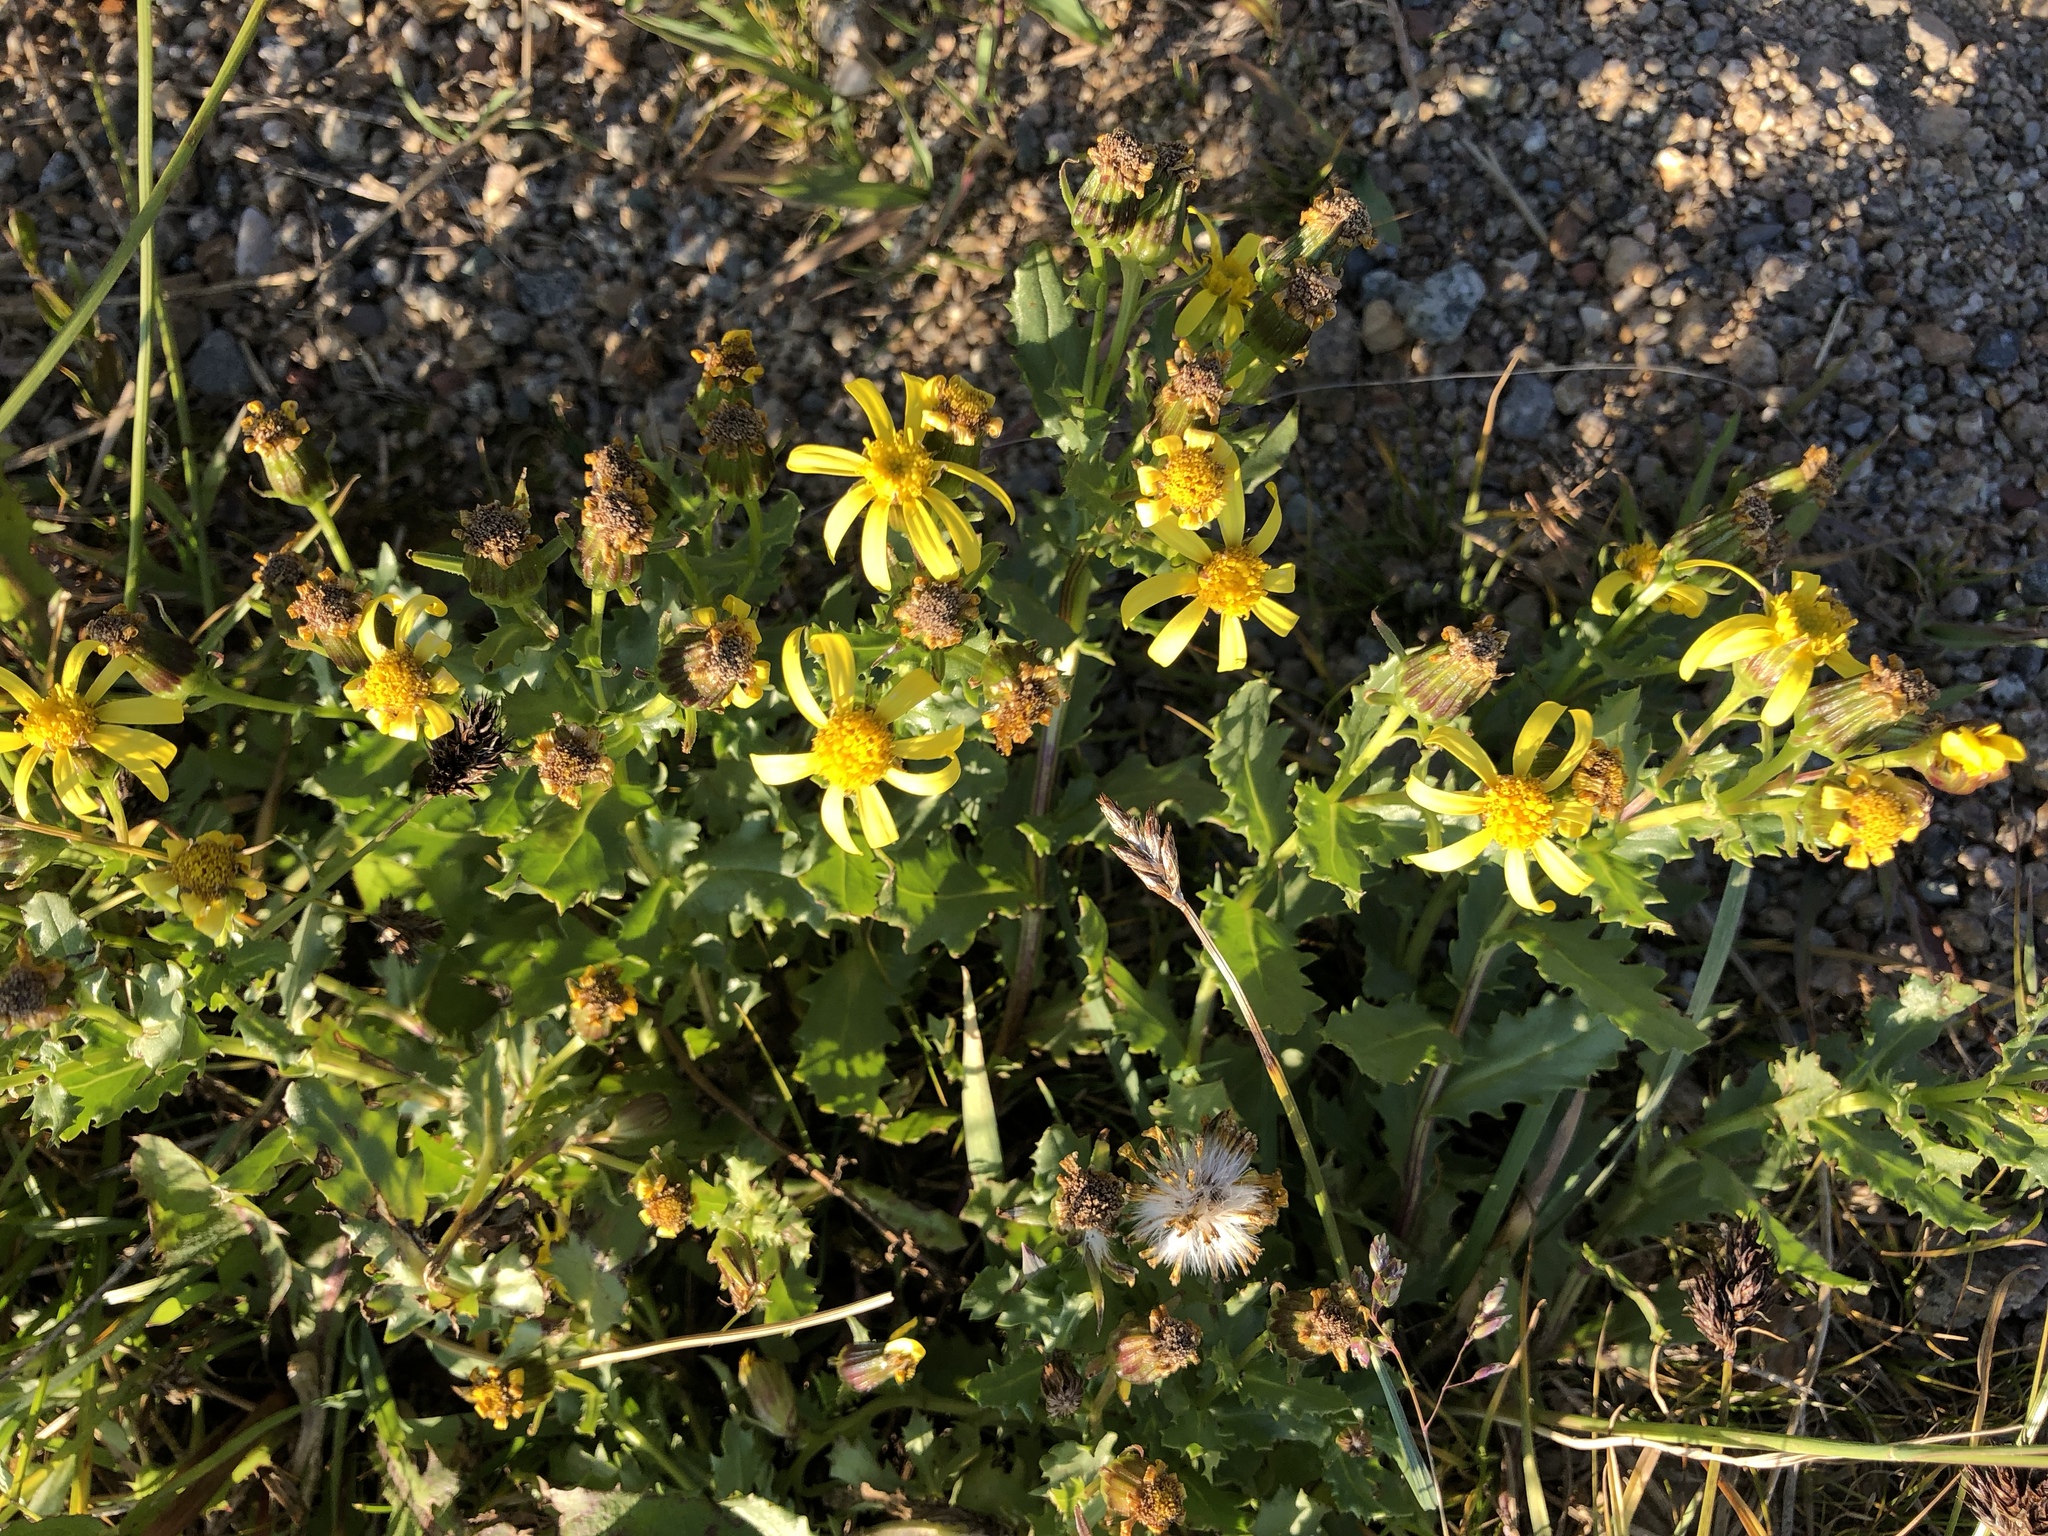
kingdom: Plantae
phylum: Tracheophyta
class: Magnoliopsida
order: Asterales
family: Asteraceae
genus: Senecio
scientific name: Senecio fremontii
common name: Fremont's groundsel
